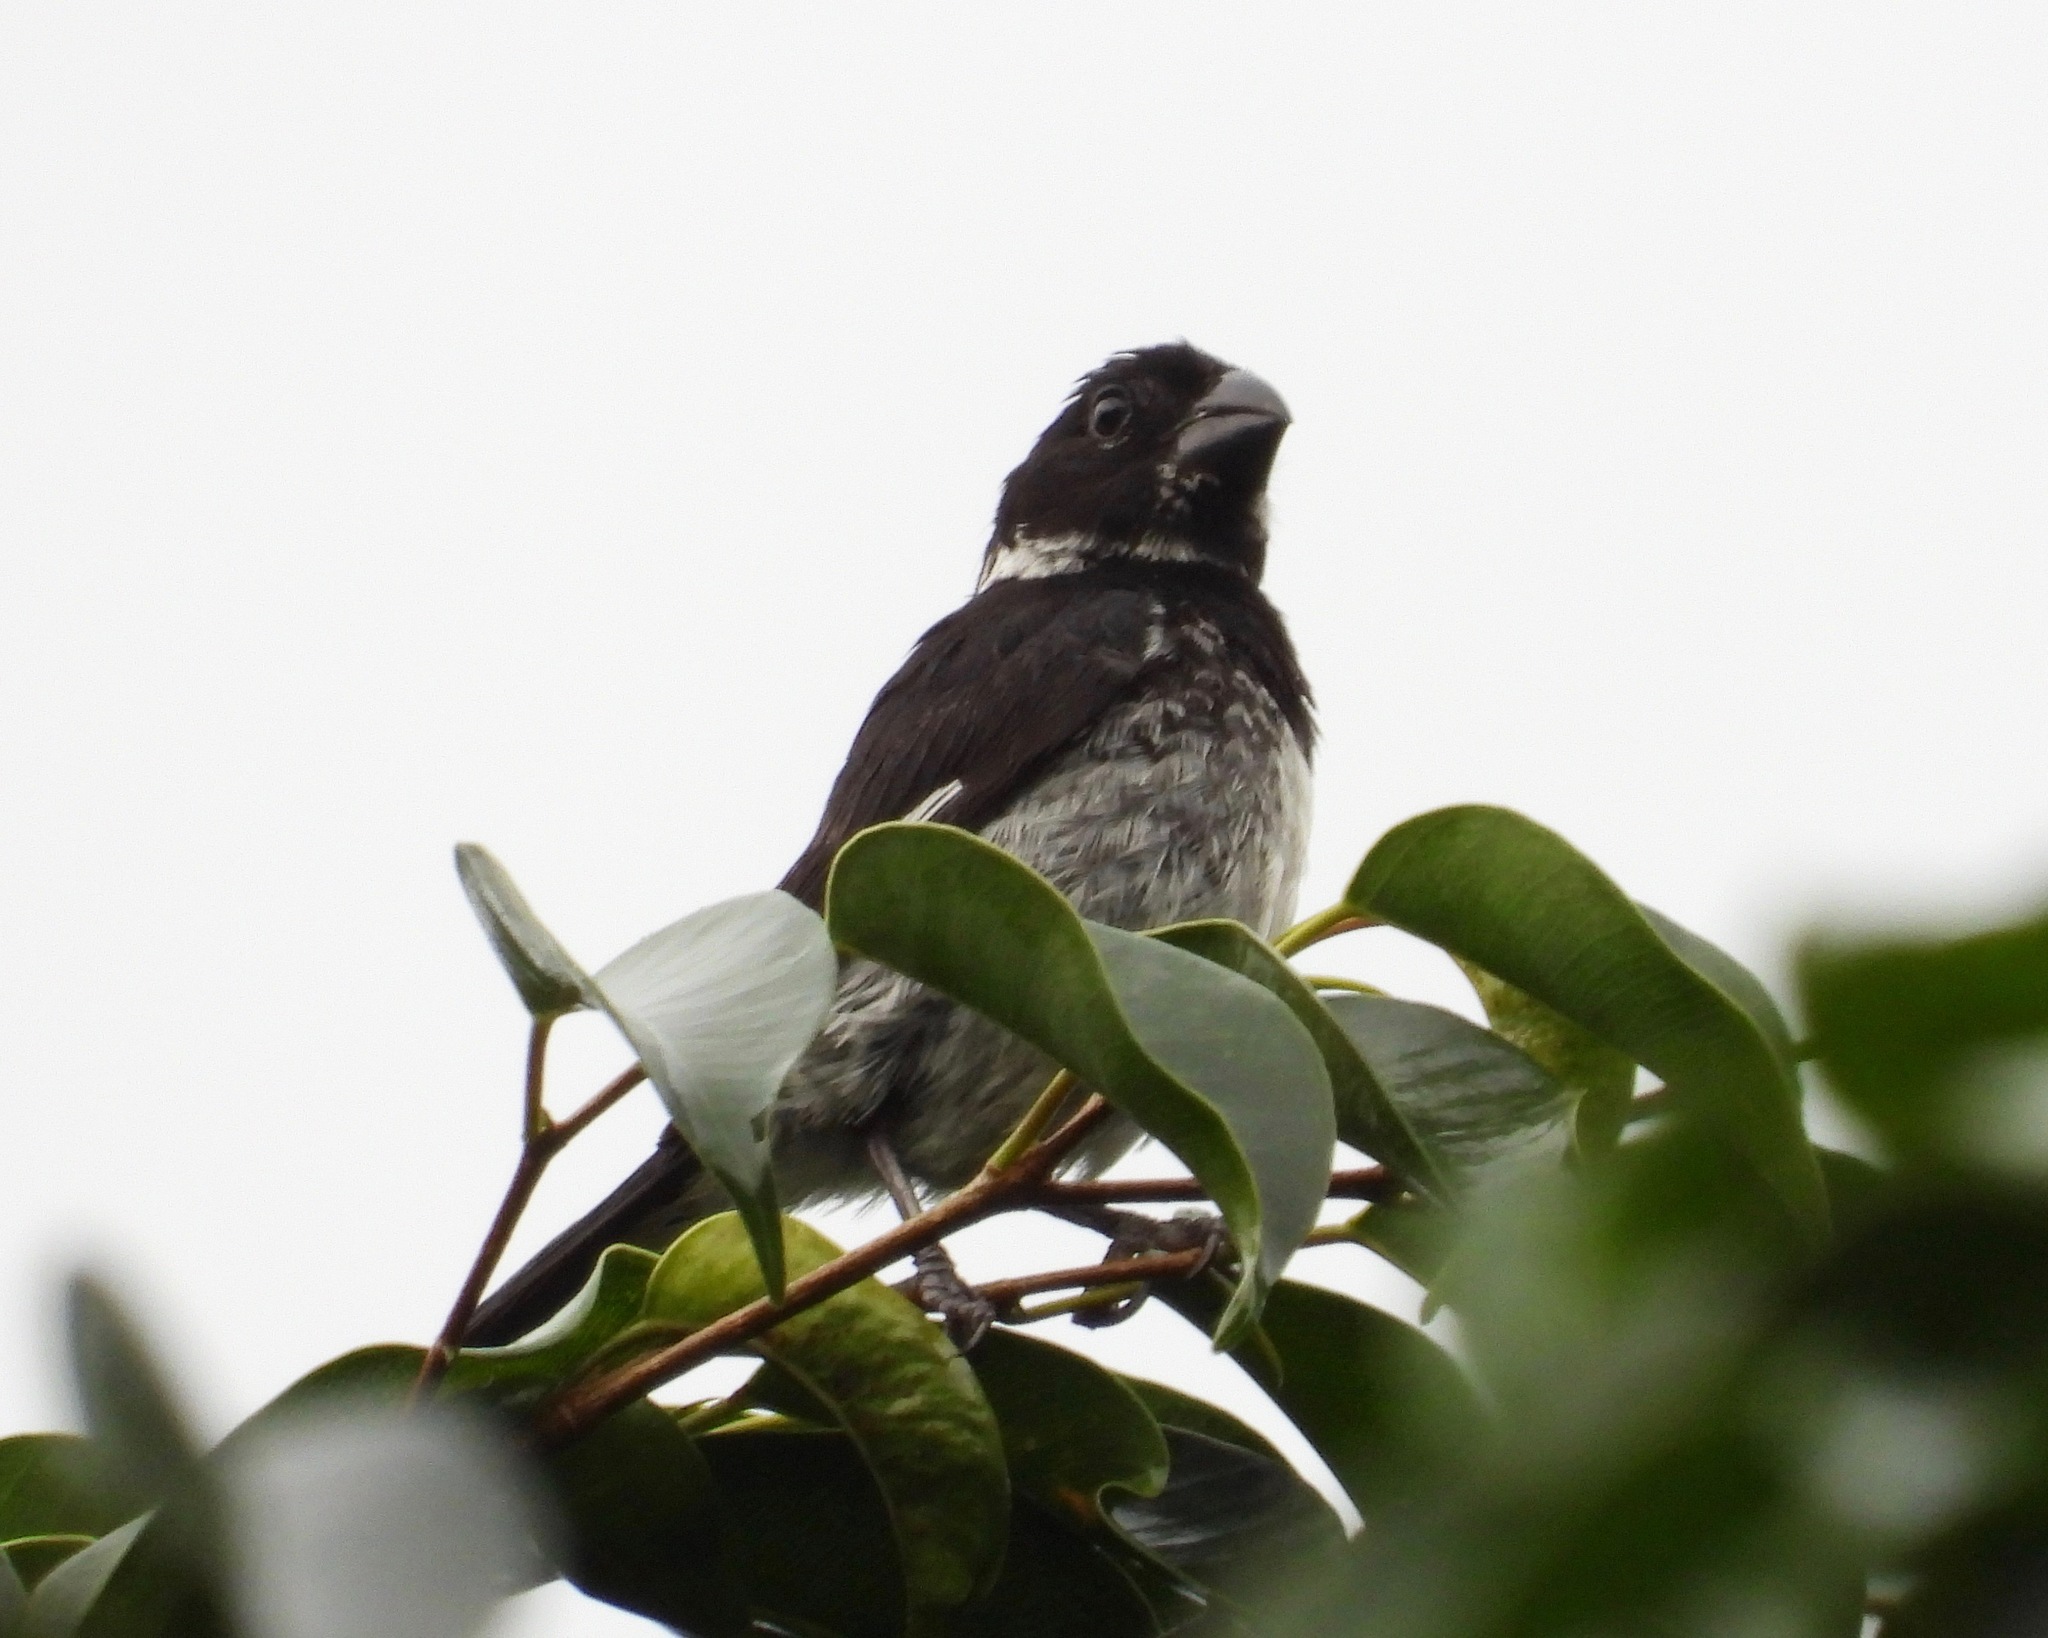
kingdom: Animalia
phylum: Chordata
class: Aves
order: Passeriformes
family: Thraupidae
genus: Sporophila
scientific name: Sporophila morelleti
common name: Morelet's seedeater
